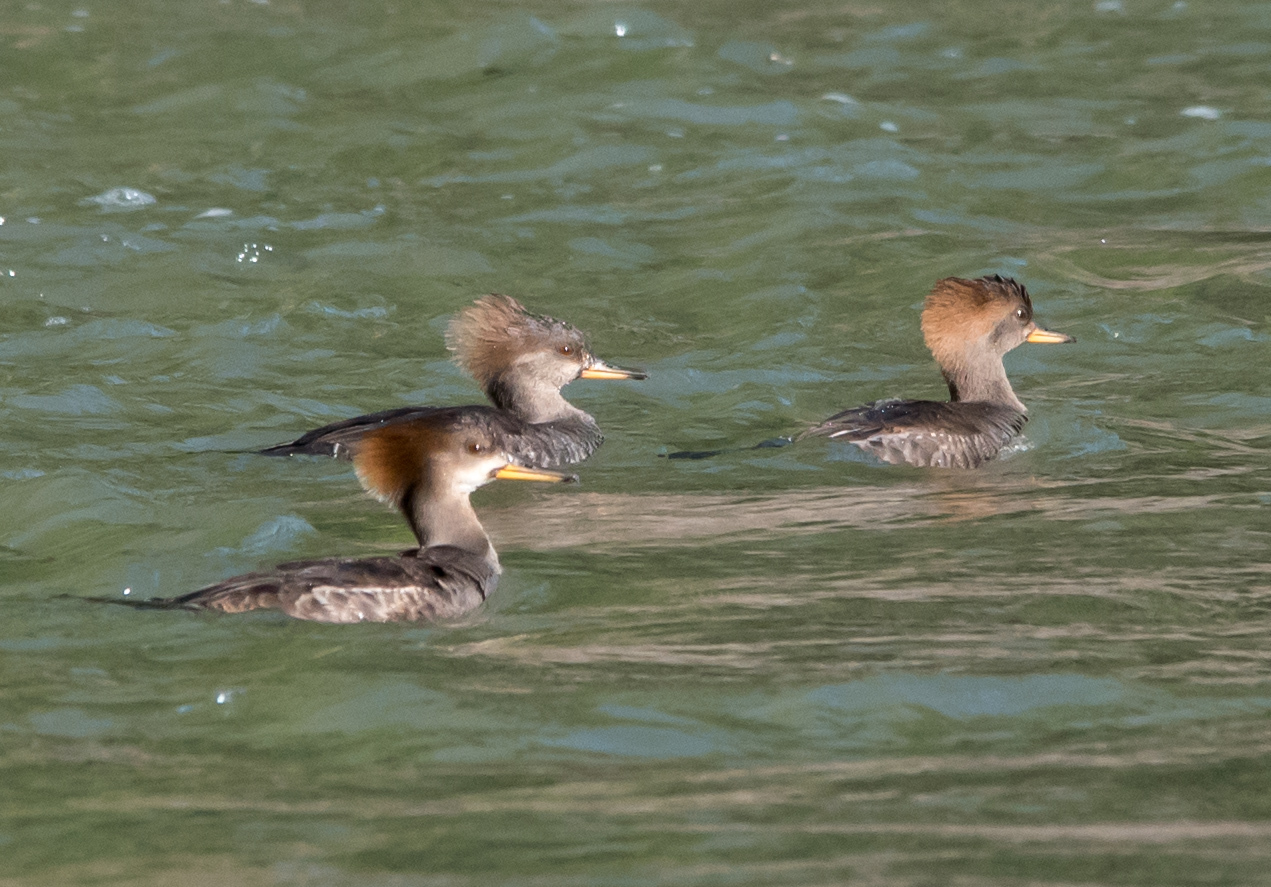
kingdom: Animalia
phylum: Chordata
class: Aves
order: Anseriformes
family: Anatidae
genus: Lophodytes
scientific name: Lophodytes cucullatus
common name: Hooded merganser
